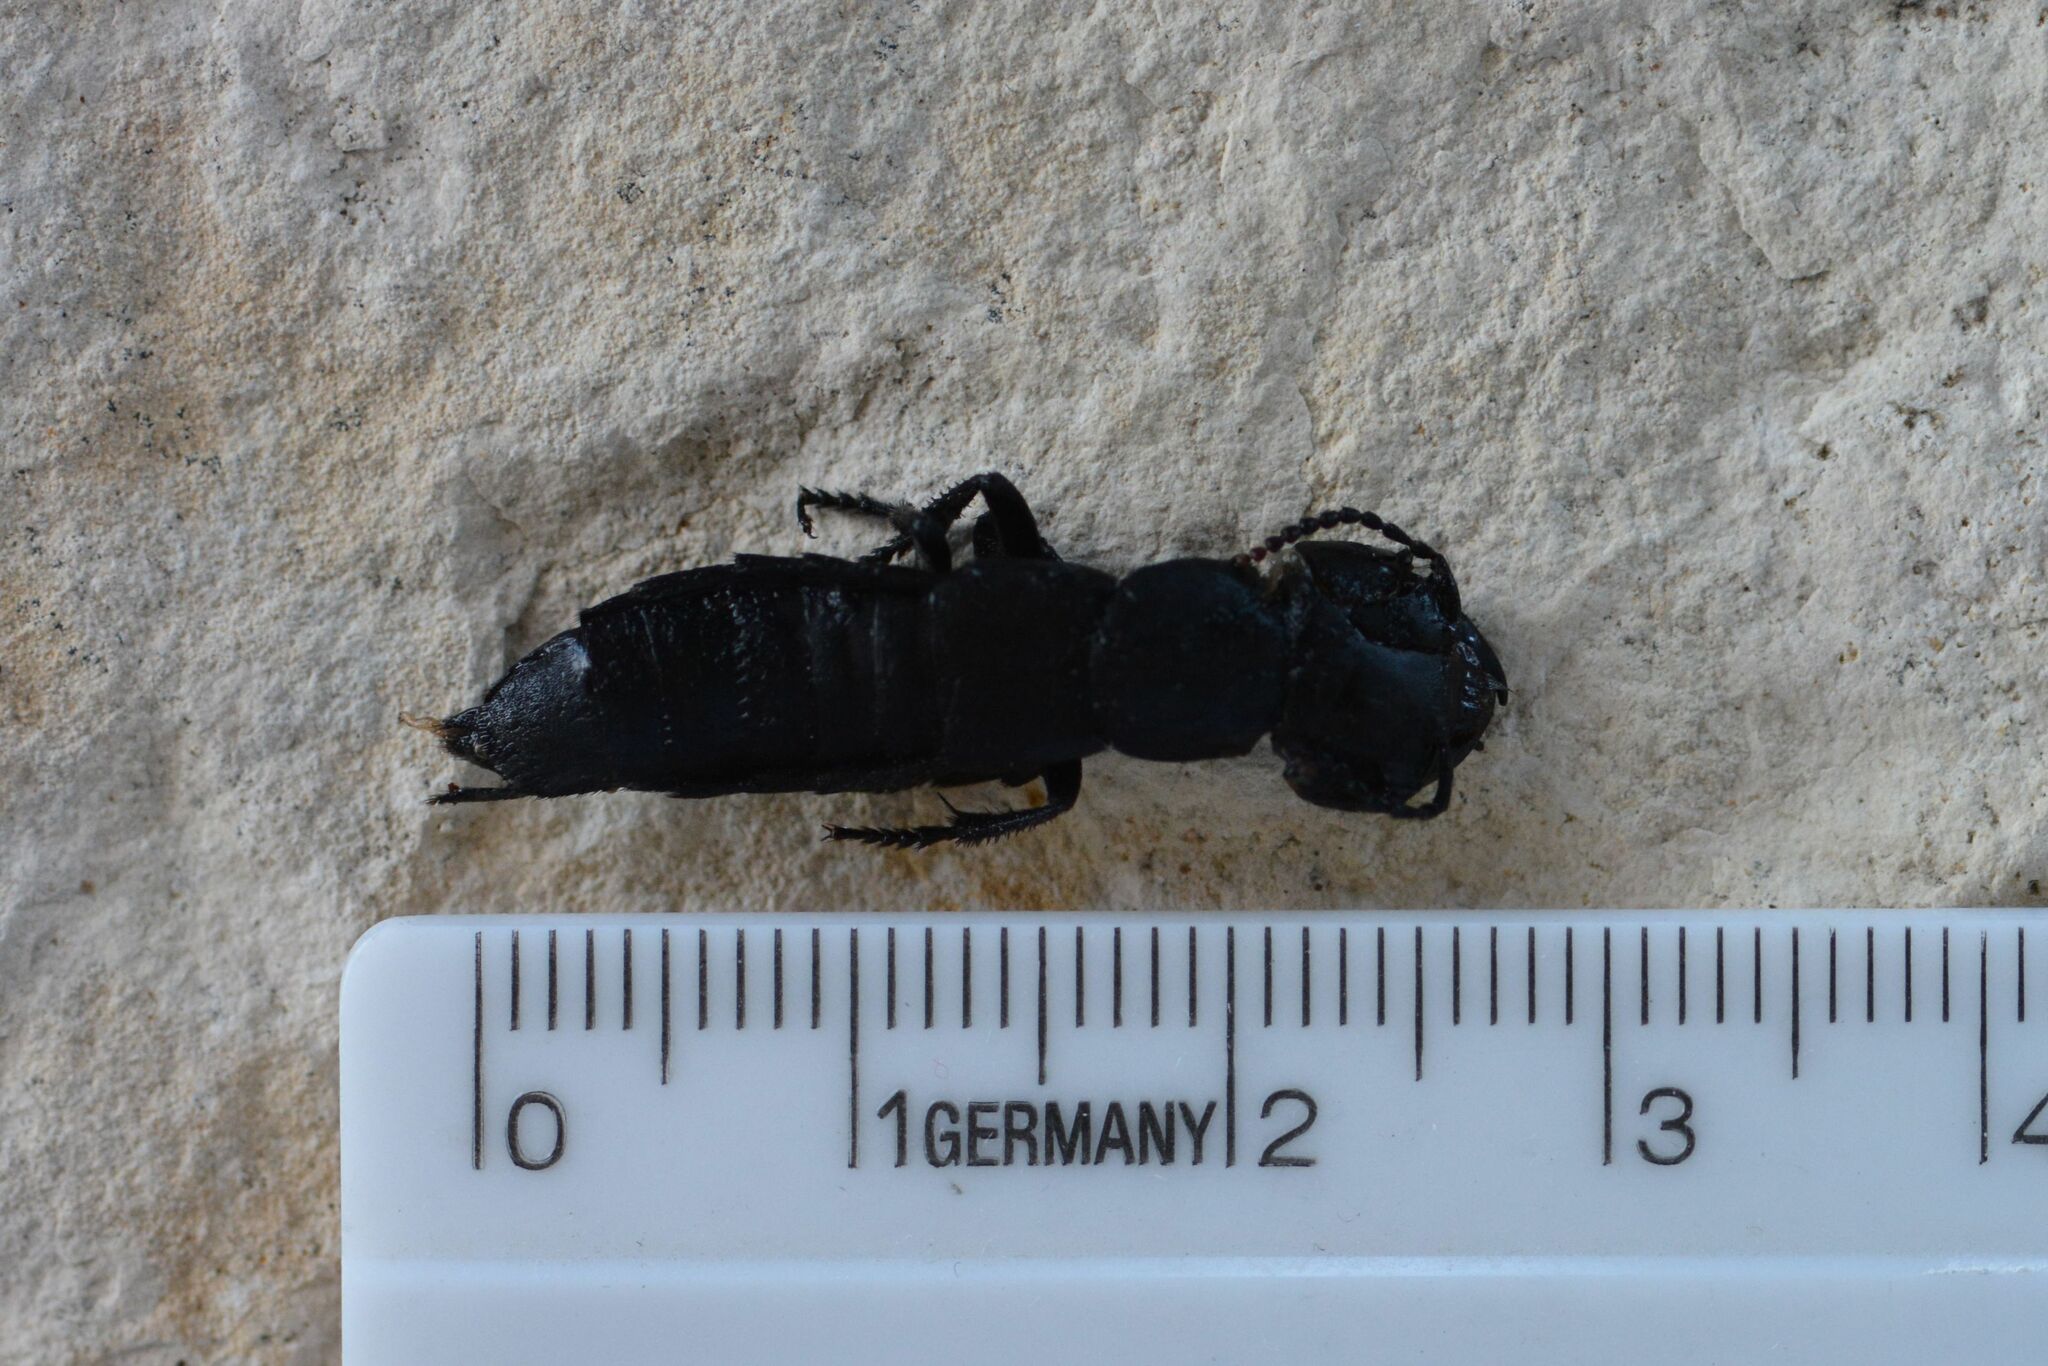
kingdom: Animalia
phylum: Arthropoda
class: Insecta
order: Coleoptera
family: Staphylinidae
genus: Ocypus
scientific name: Ocypus tenebricosus
